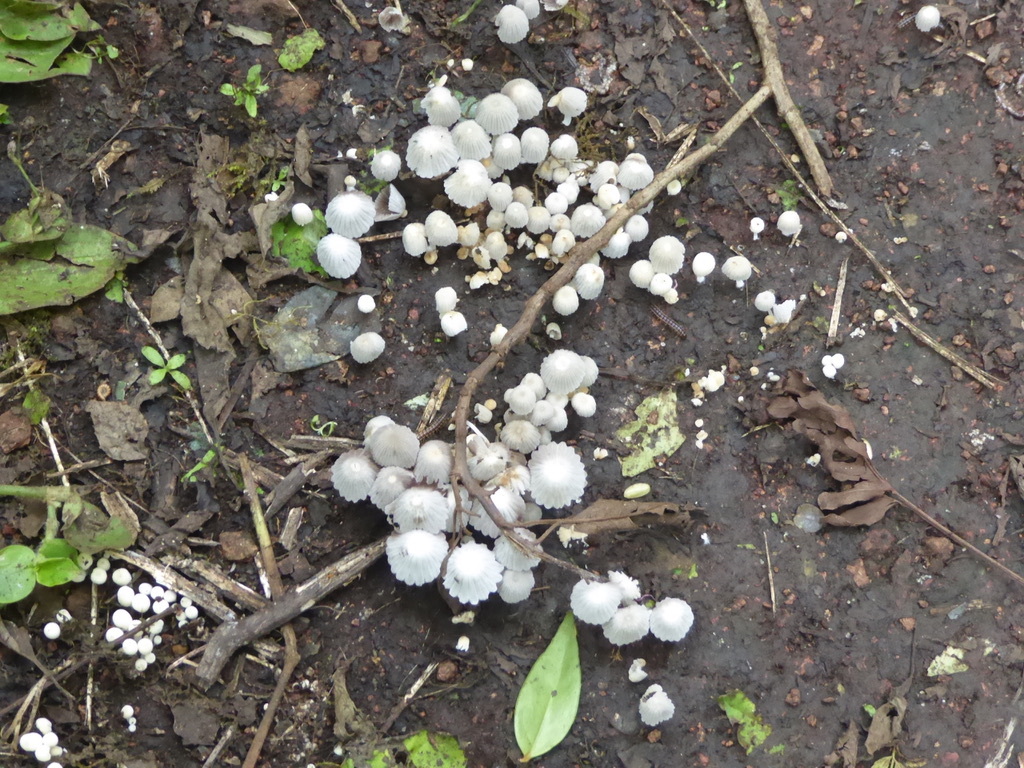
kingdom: Fungi
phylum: Basidiomycota
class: Agaricomycetes
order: Agaricales
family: Psathyrellaceae
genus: Coprinellus
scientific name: Coprinellus disseminatus
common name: Fairies' bonnets
